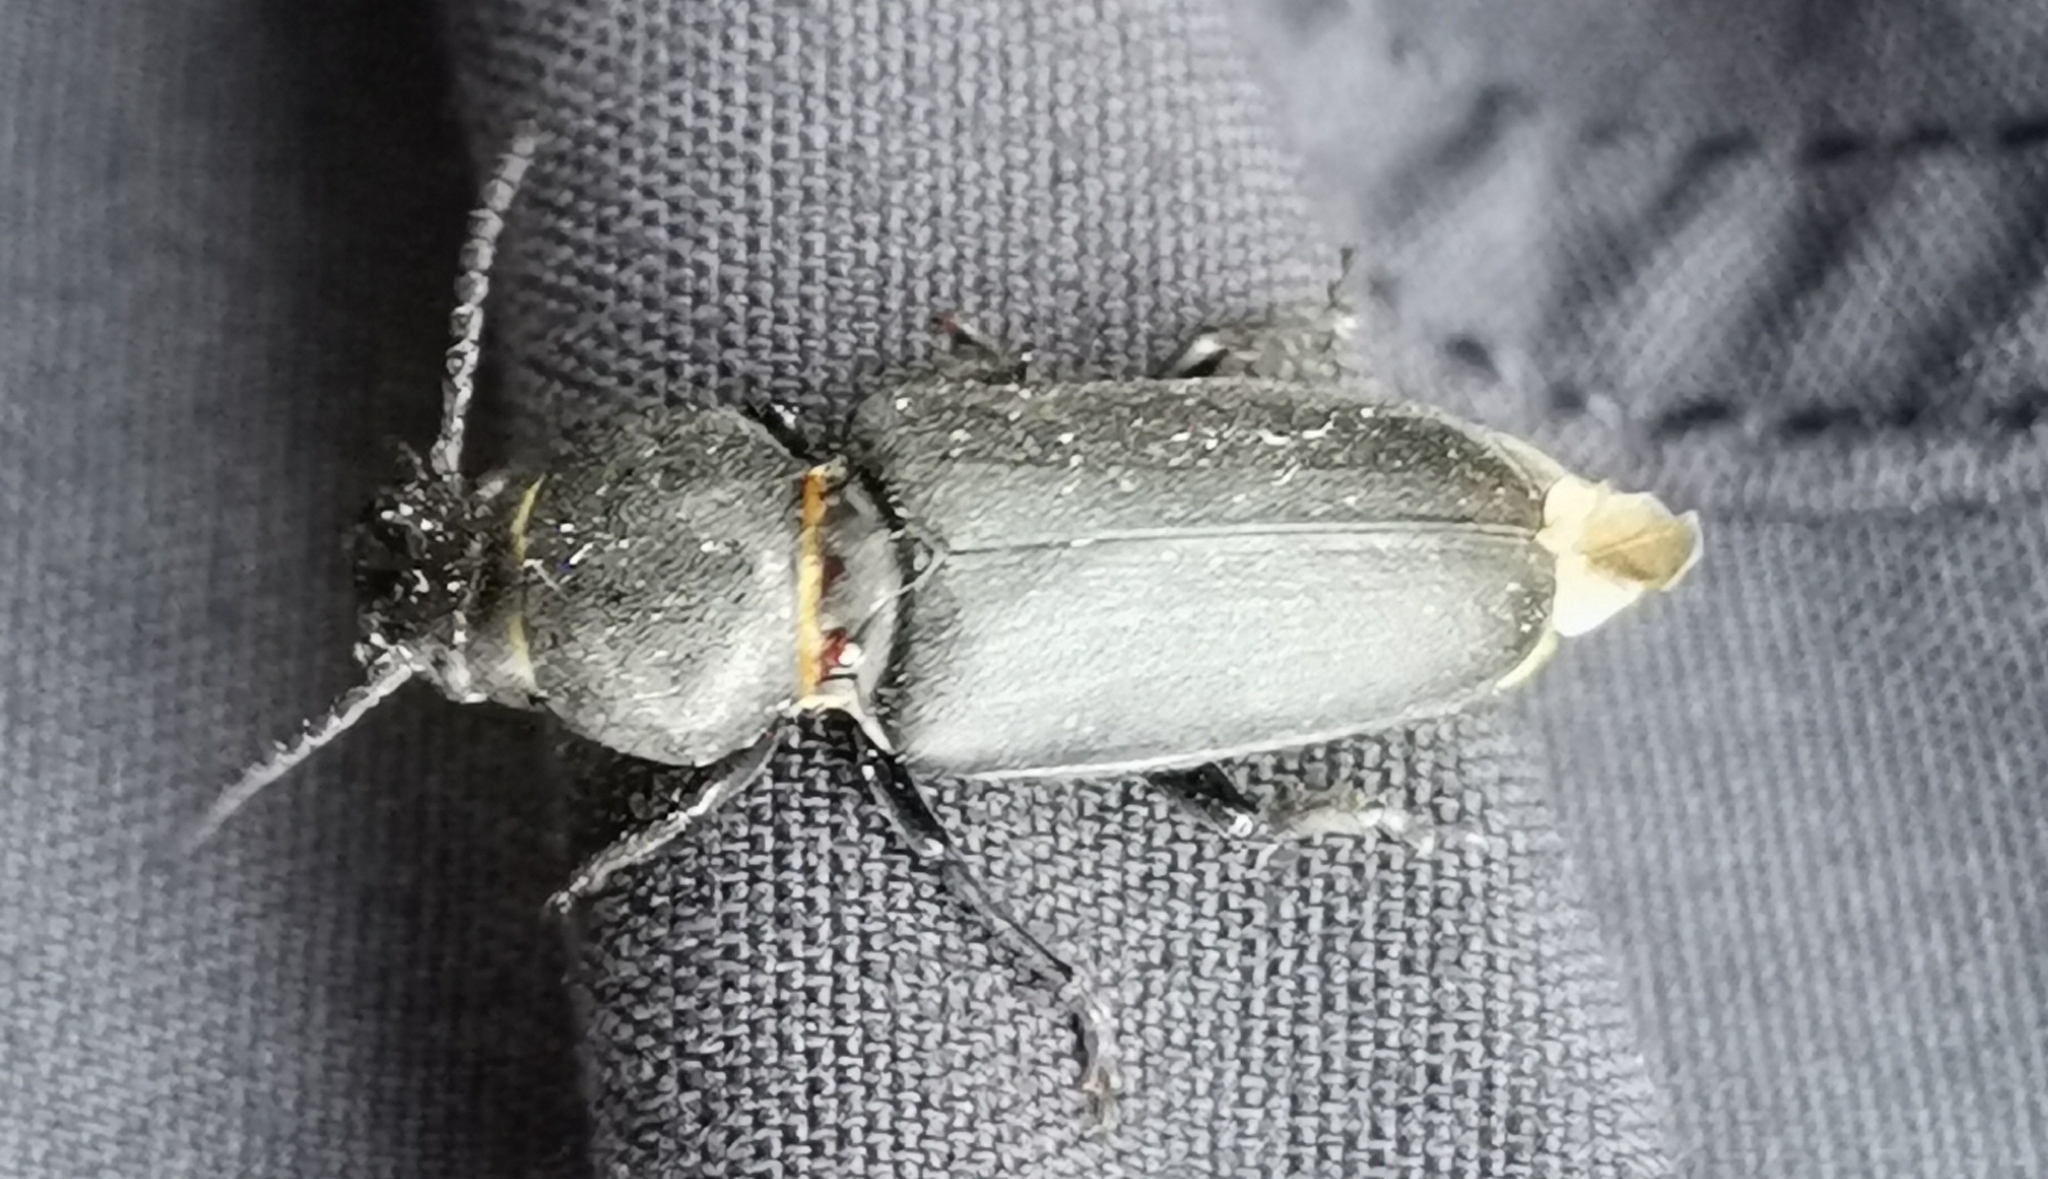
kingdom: Animalia
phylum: Arthropoda
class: Insecta
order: Coleoptera
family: Cerambycidae
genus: Spondylis
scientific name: Spondylis buprestoides
